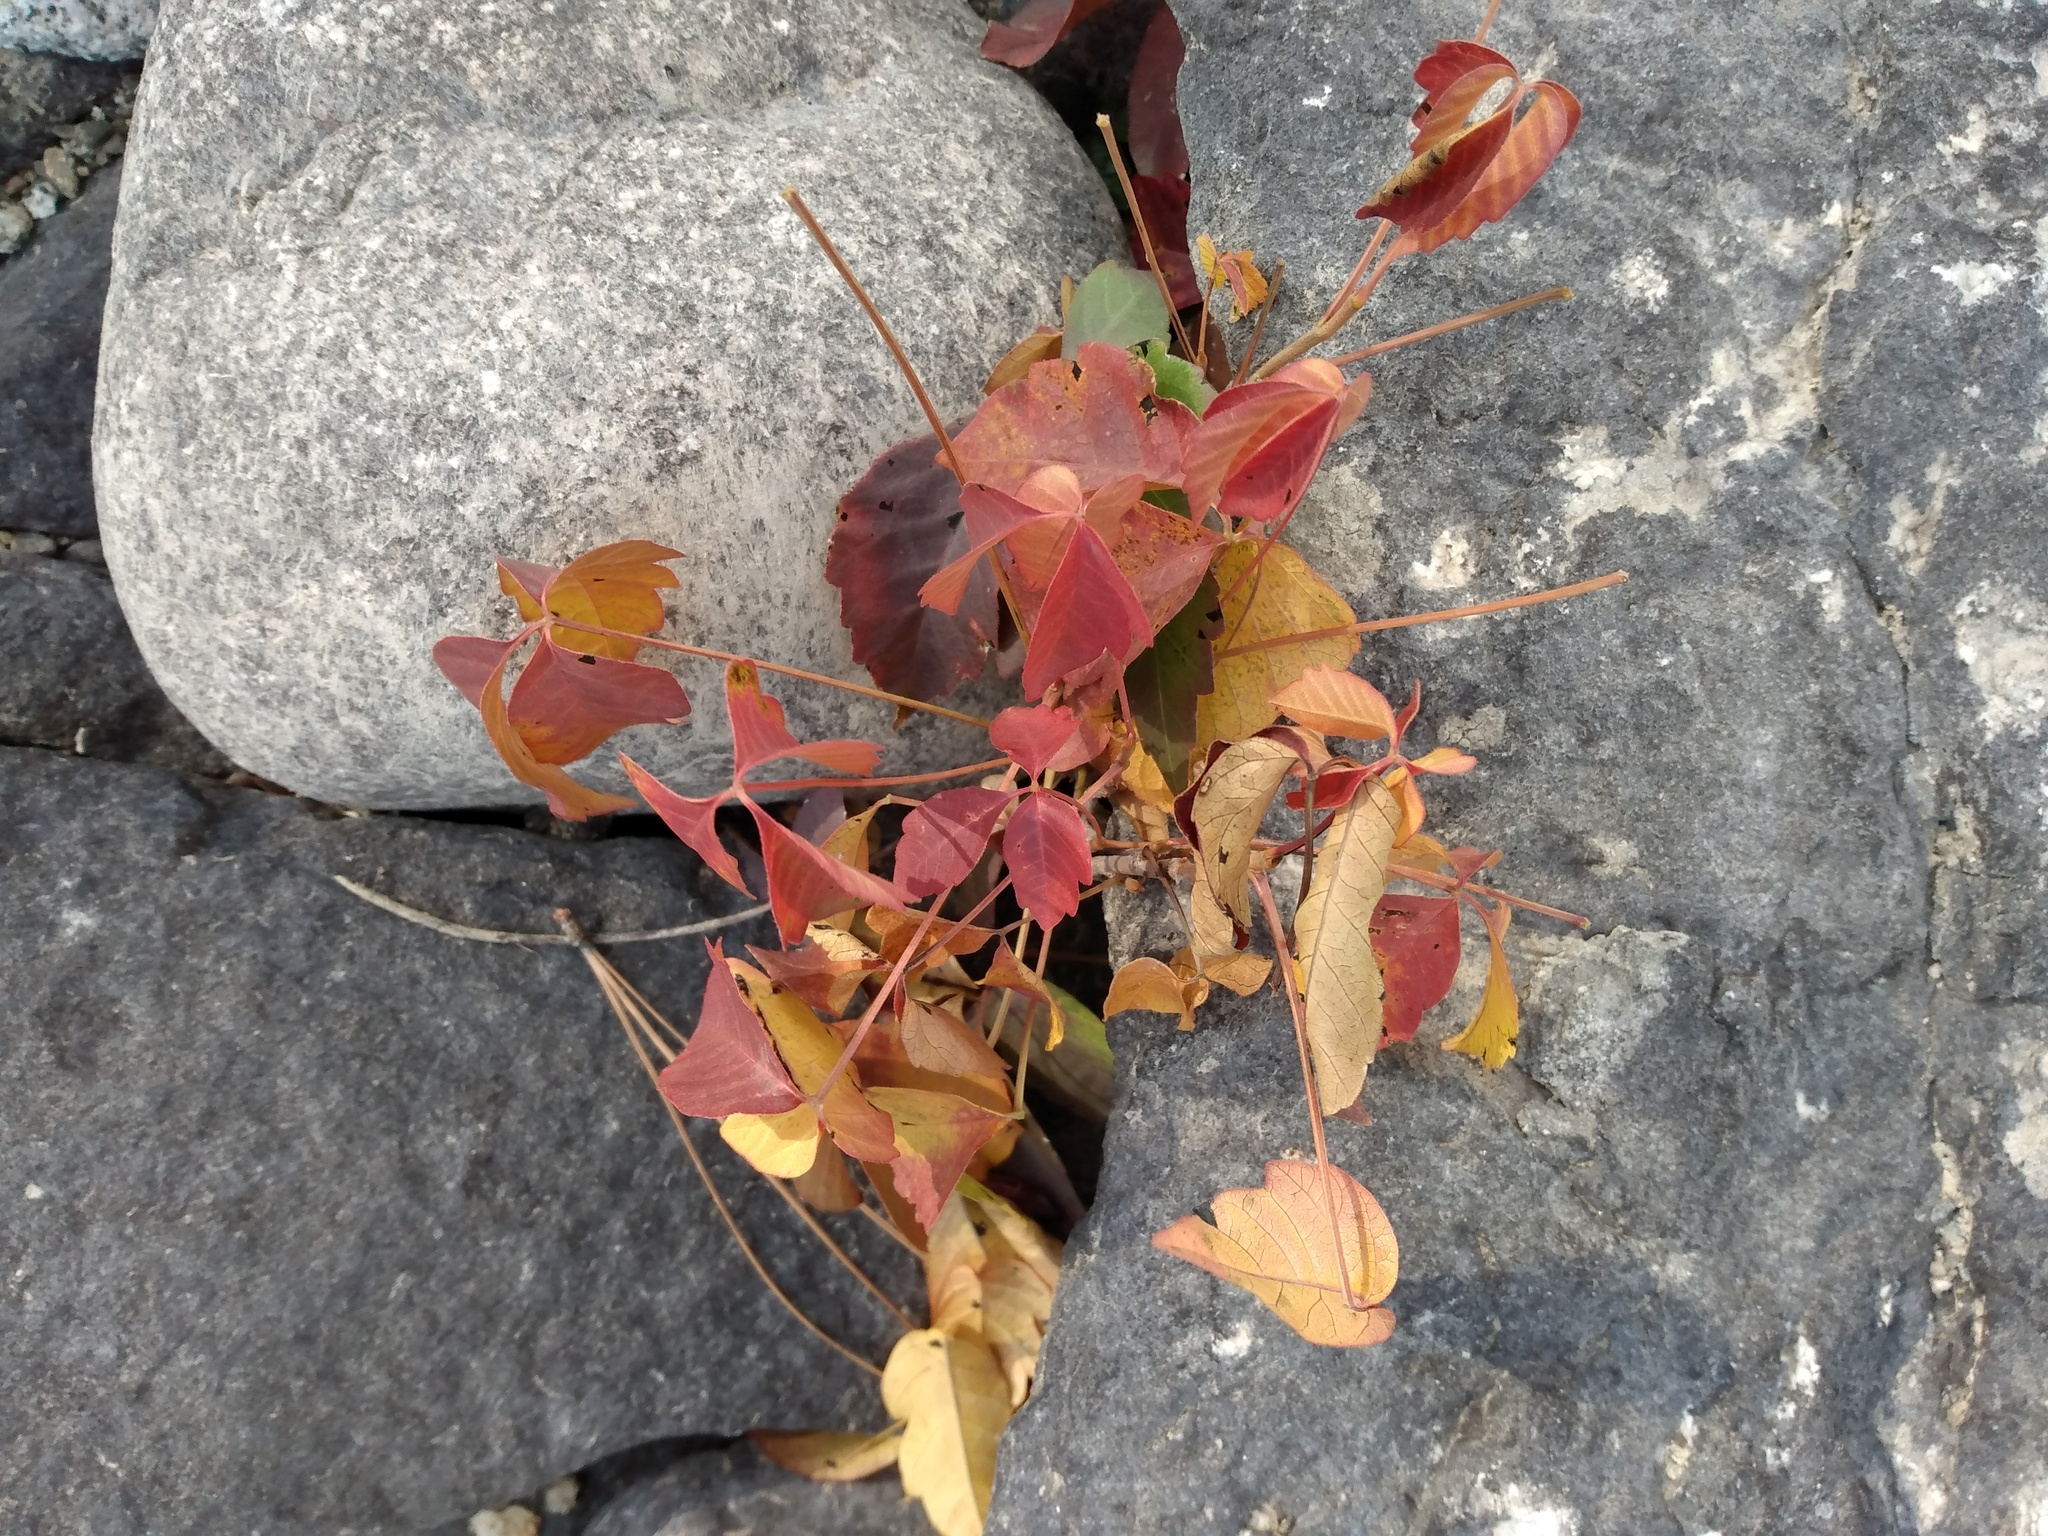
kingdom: Plantae
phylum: Tracheophyta
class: Magnoliopsida
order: Sapindales
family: Anacardiaceae
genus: Toxicodendron
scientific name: Toxicodendron rydbergii
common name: Rydberg's poison-ivy
